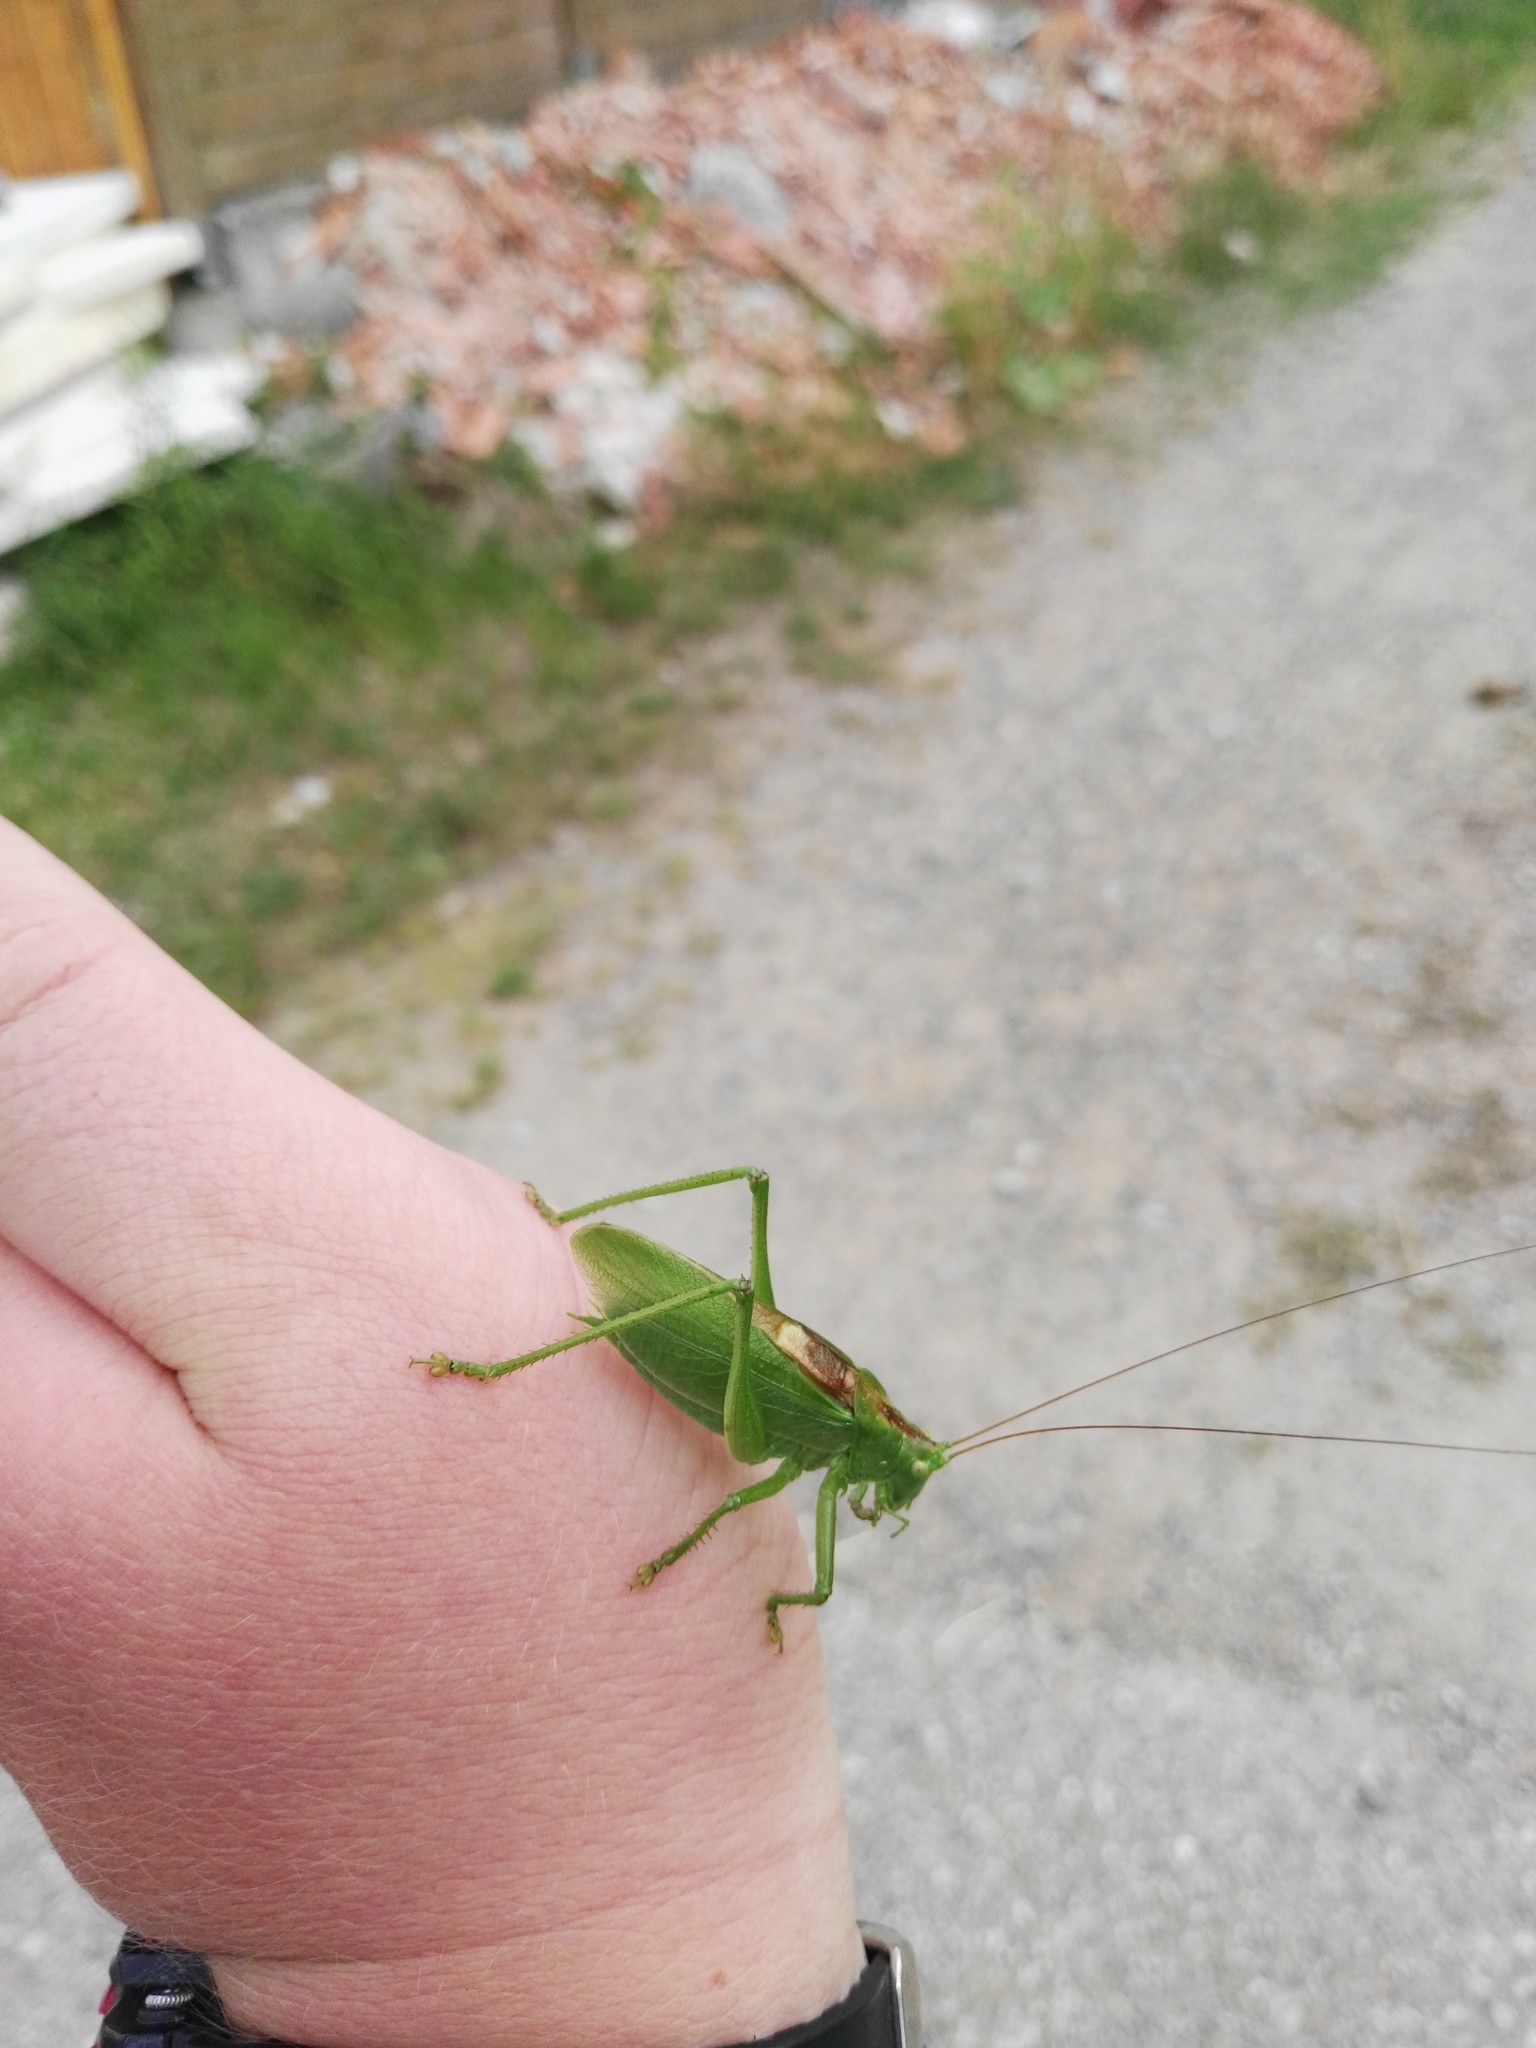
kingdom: Animalia
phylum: Arthropoda
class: Insecta
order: Orthoptera
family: Tettigoniidae
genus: Tettigonia
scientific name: Tettigonia cantans
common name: Upland green bush-cricket
